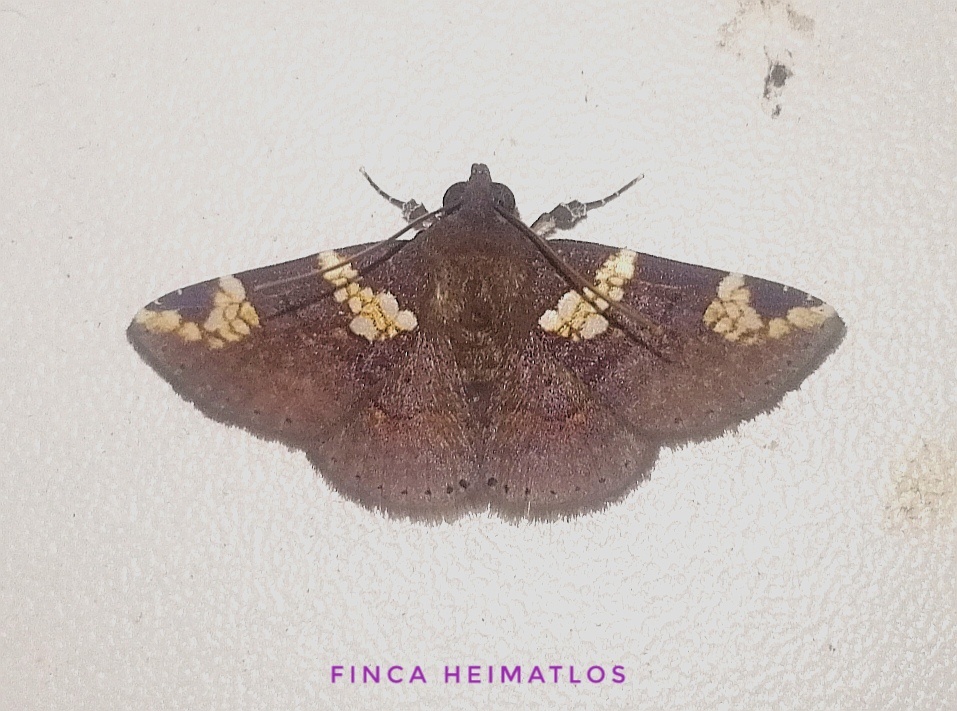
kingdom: Animalia
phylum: Arthropoda
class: Insecta
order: Lepidoptera
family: Erebidae
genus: Antiblemma
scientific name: Antiblemma perornata
